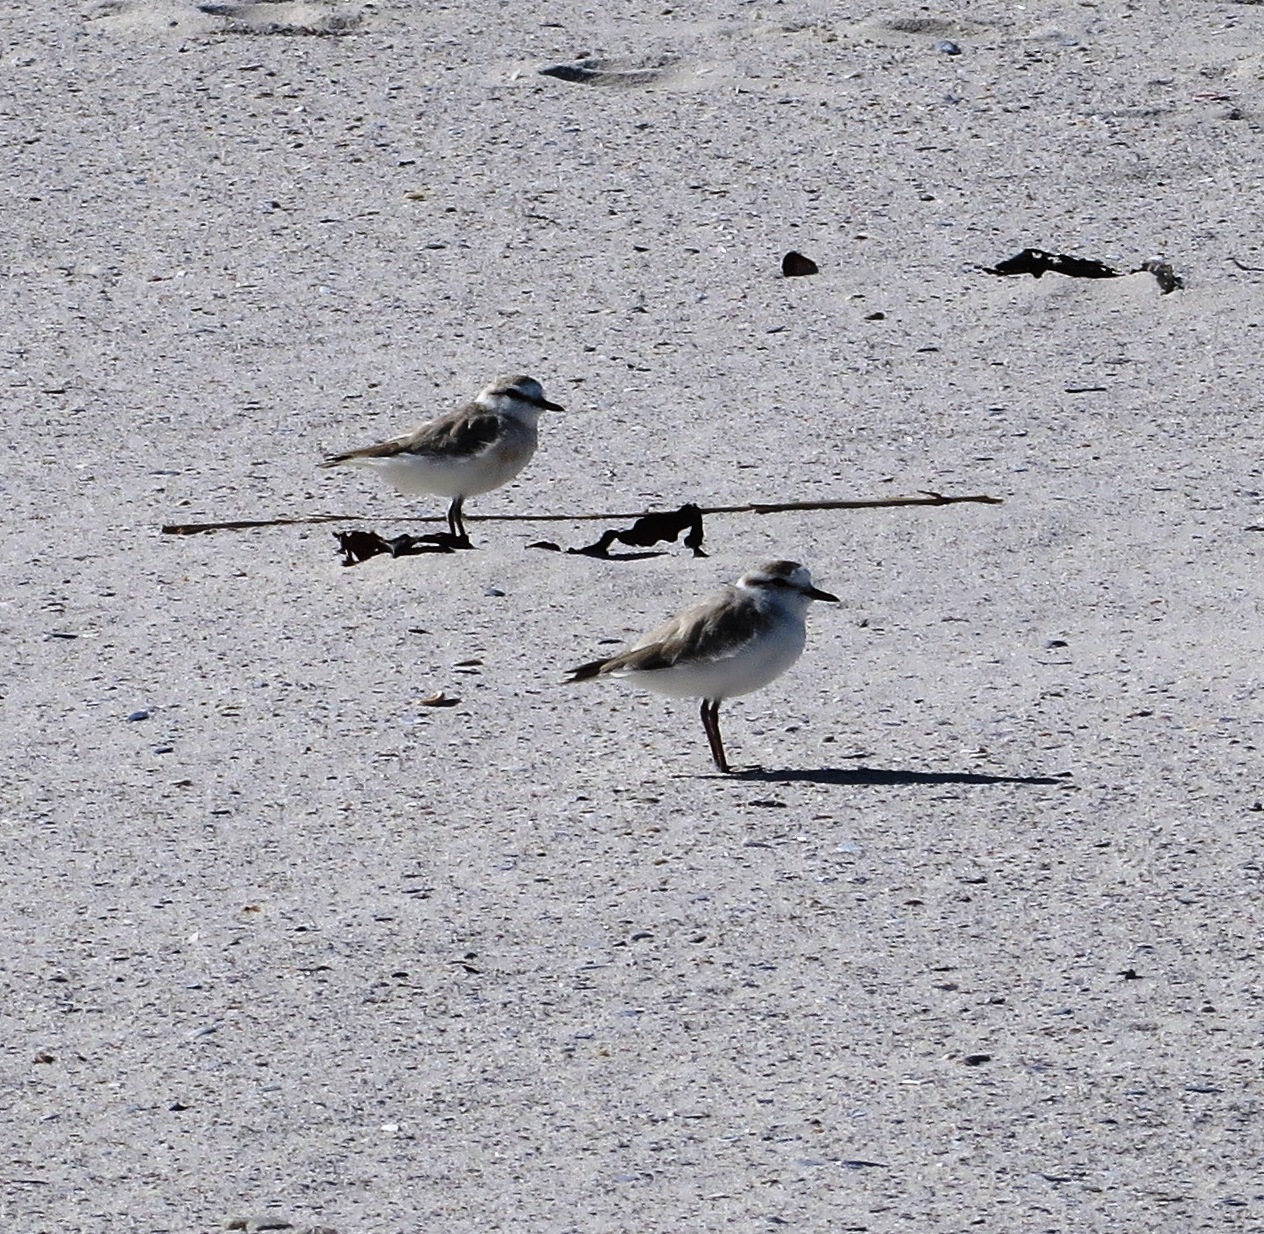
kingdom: Animalia
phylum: Chordata
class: Aves
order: Charadriiformes
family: Charadriidae
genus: Anarhynchus
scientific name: Anarhynchus
